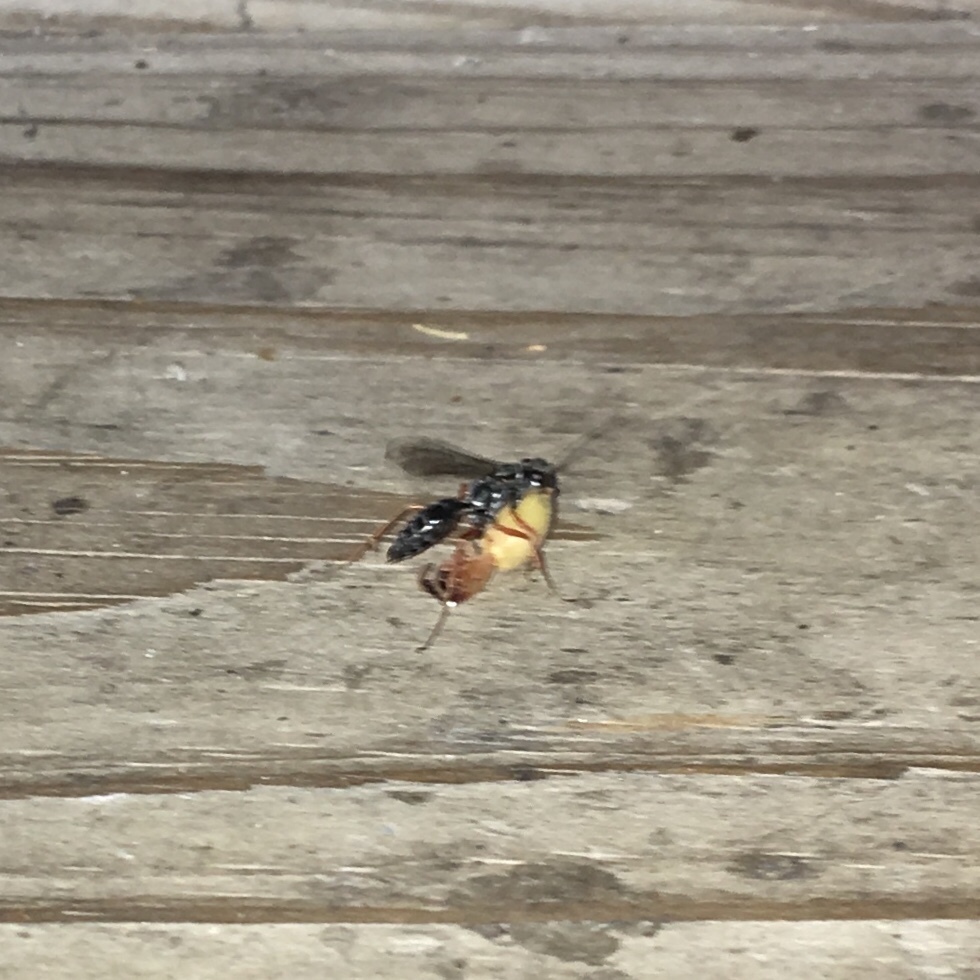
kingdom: Animalia
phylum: Arthropoda
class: Insecta
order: Hymenoptera
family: Pompilidae
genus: Auplopus
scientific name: Auplopus mellipes
